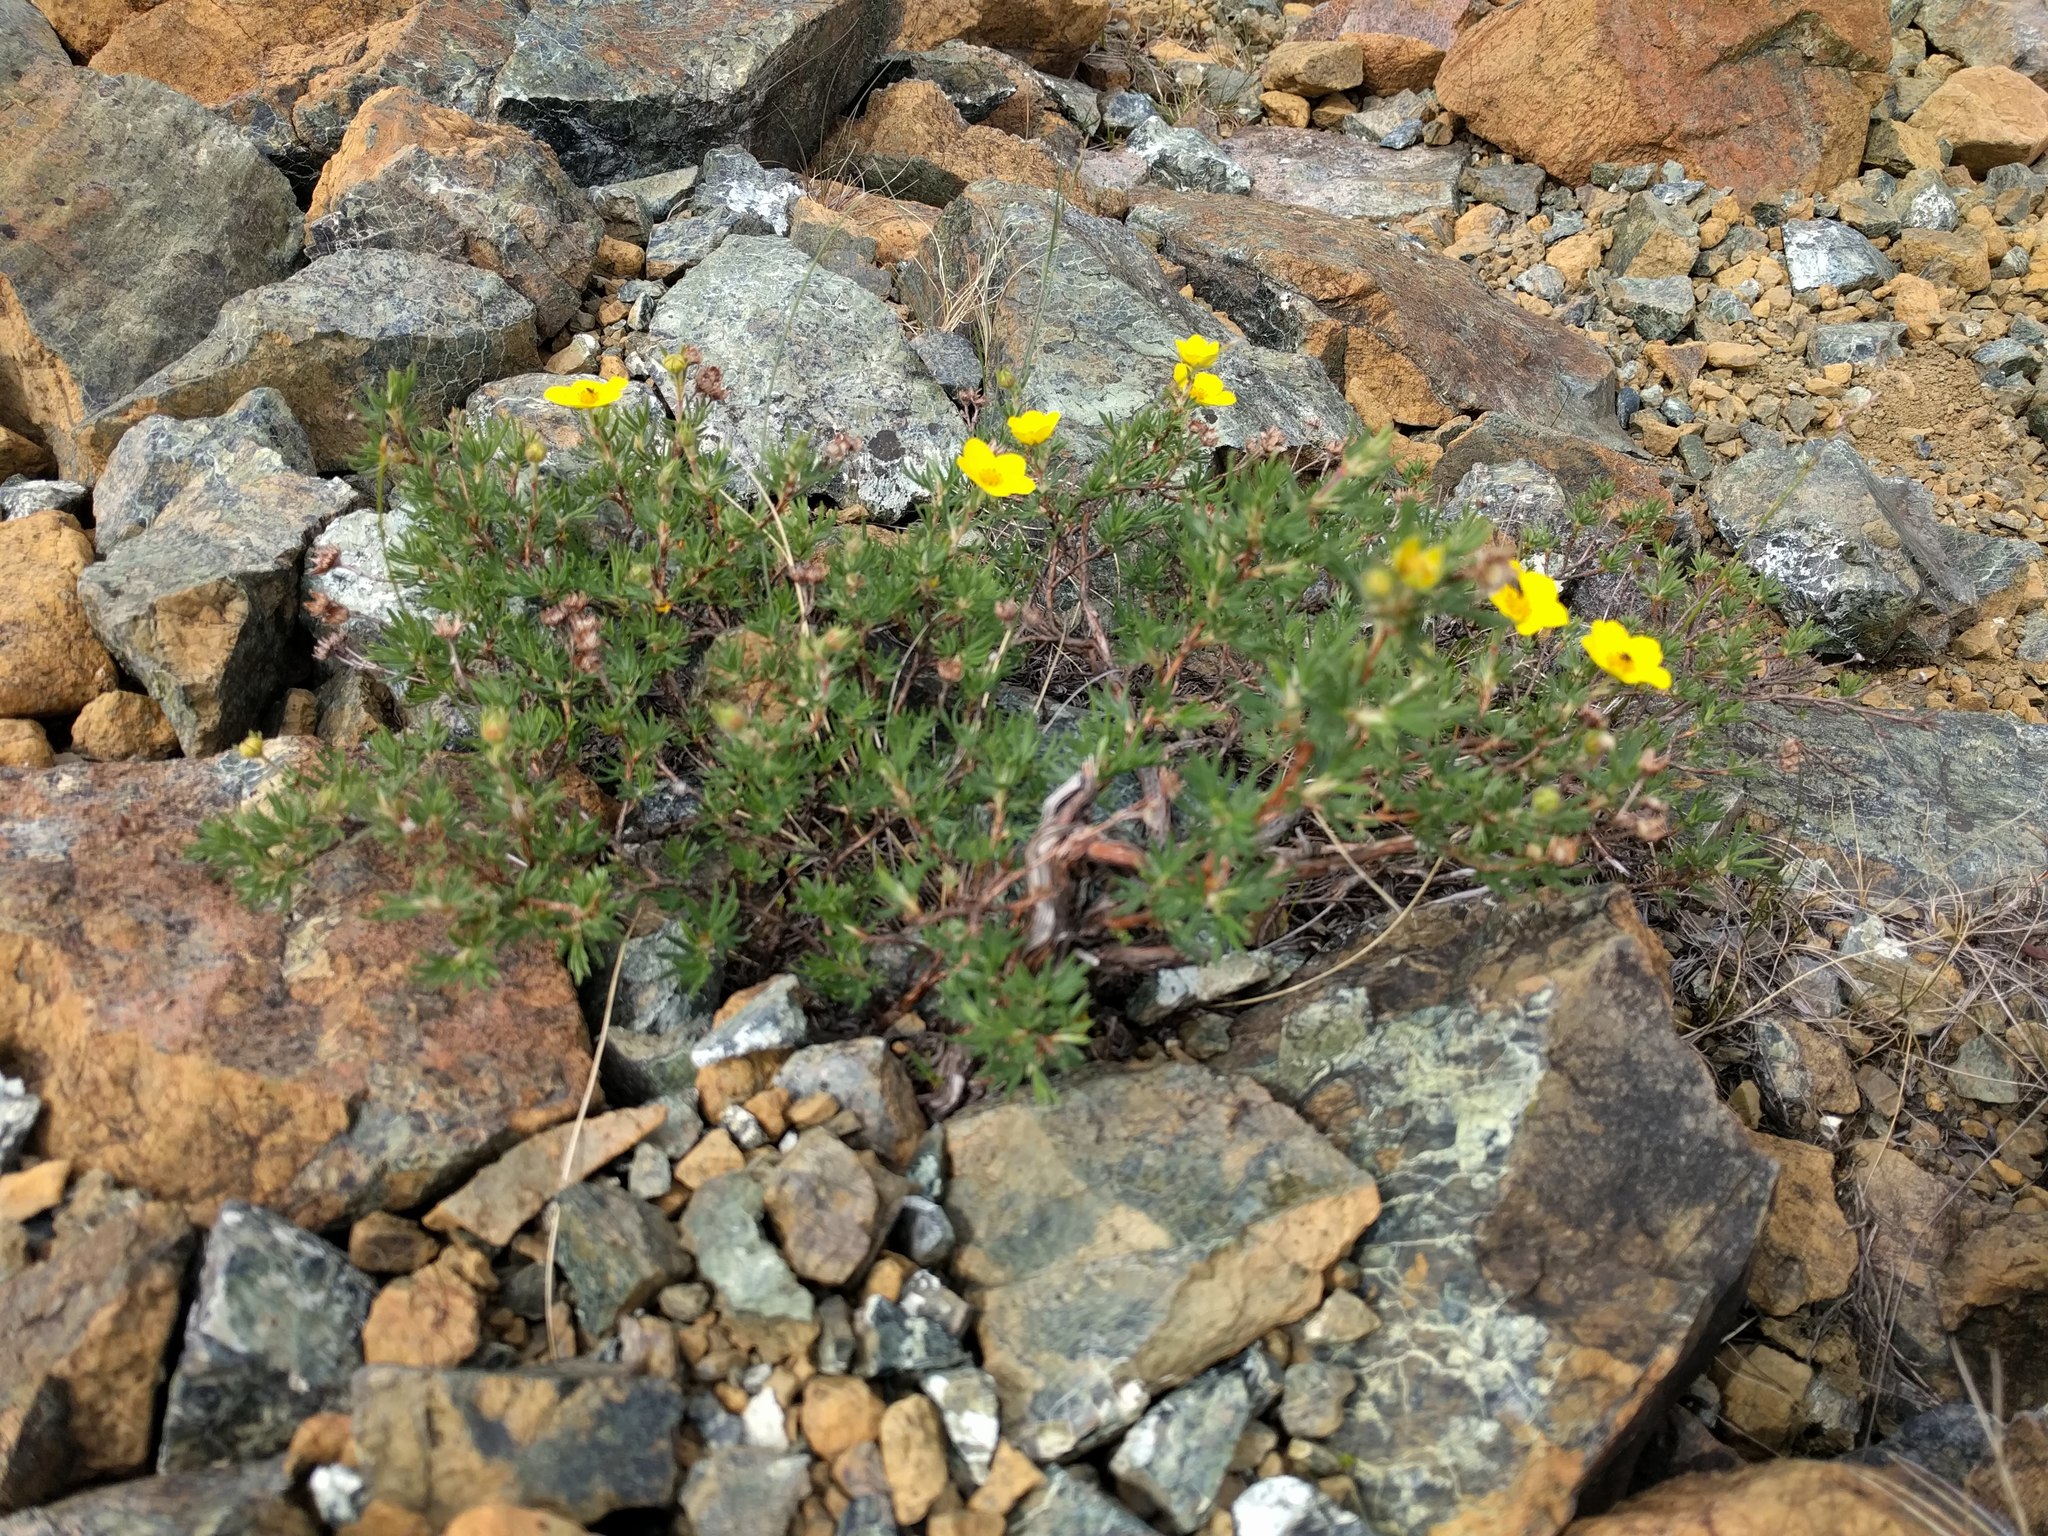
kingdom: Plantae
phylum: Tracheophyta
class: Magnoliopsida
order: Rosales
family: Rosaceae
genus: Dasiphora
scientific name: Dasiphora fruticosa
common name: Shrubby cinquefoil
